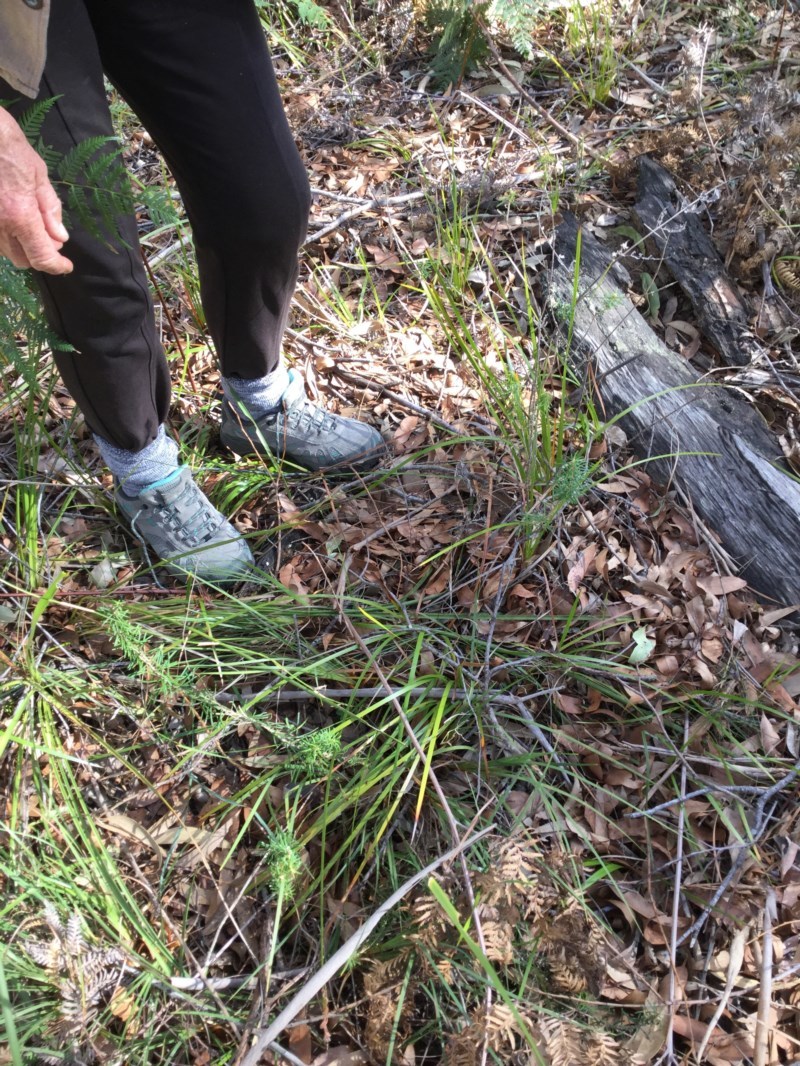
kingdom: Plantae
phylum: Tracheophyta
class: Magnoliopsida
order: Apiales
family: Araliaceae
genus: Astrotricha
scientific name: Astrotricha
